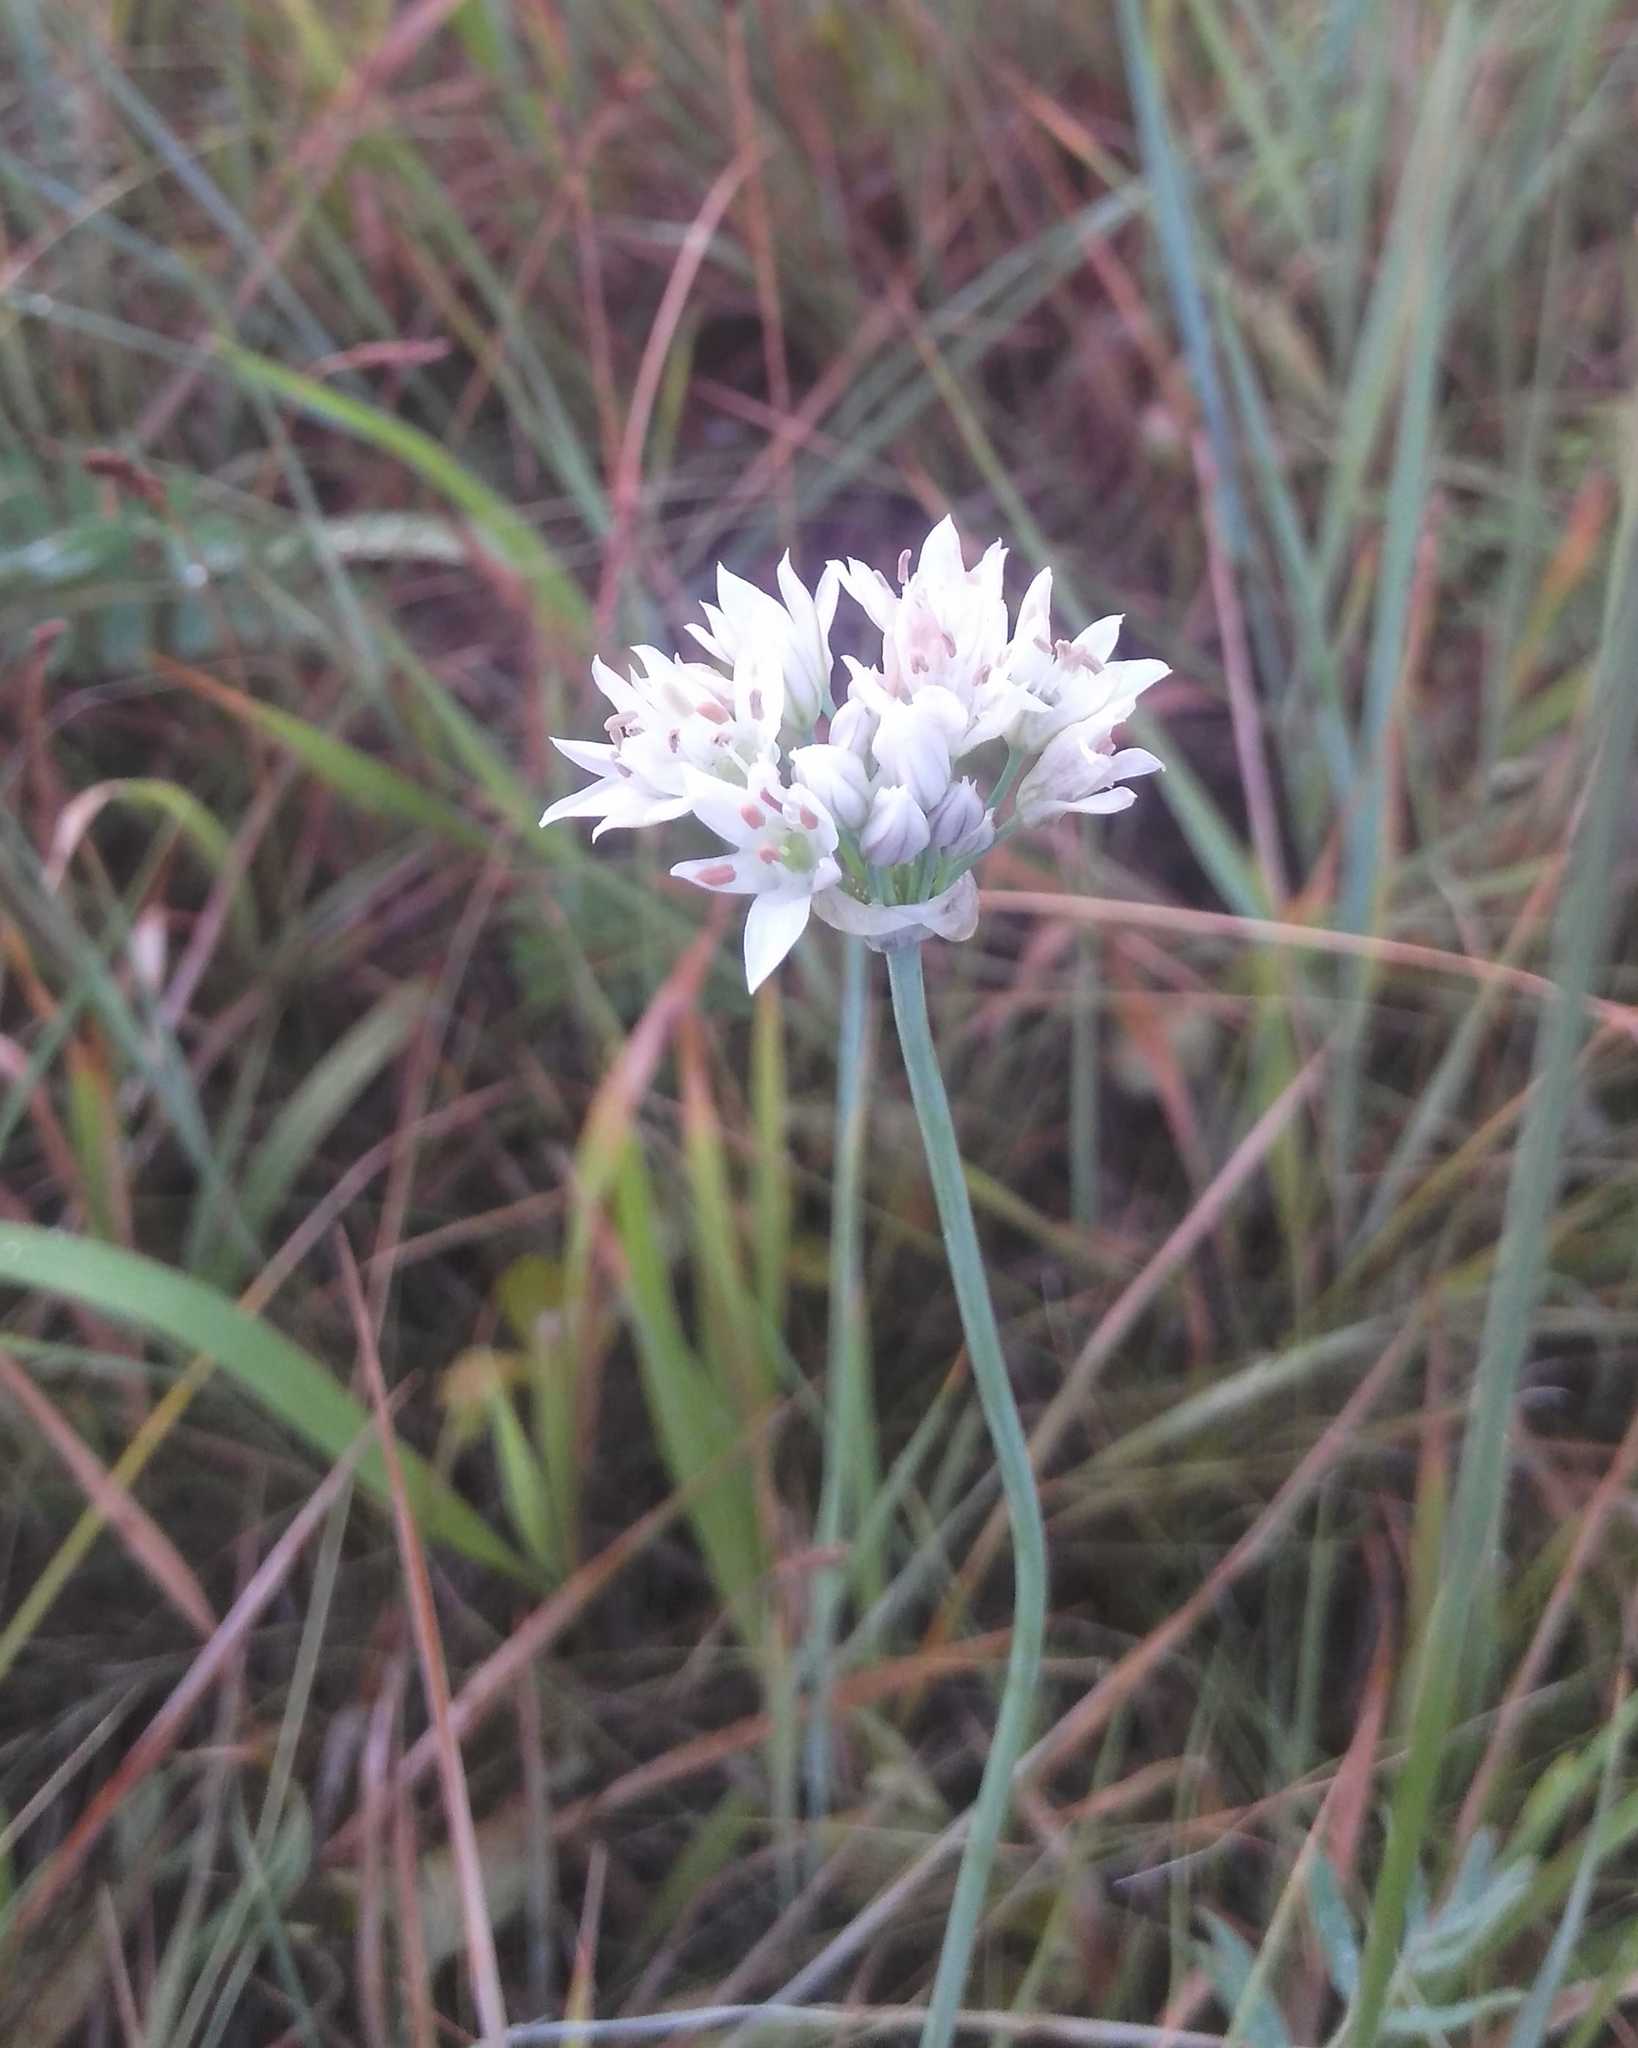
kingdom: Plantae
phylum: Tracheophyta
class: Liliopsida
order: Asparagales
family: Amaryllidaceae
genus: Allium
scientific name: Allium ramosum
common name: Fragrant garlic
